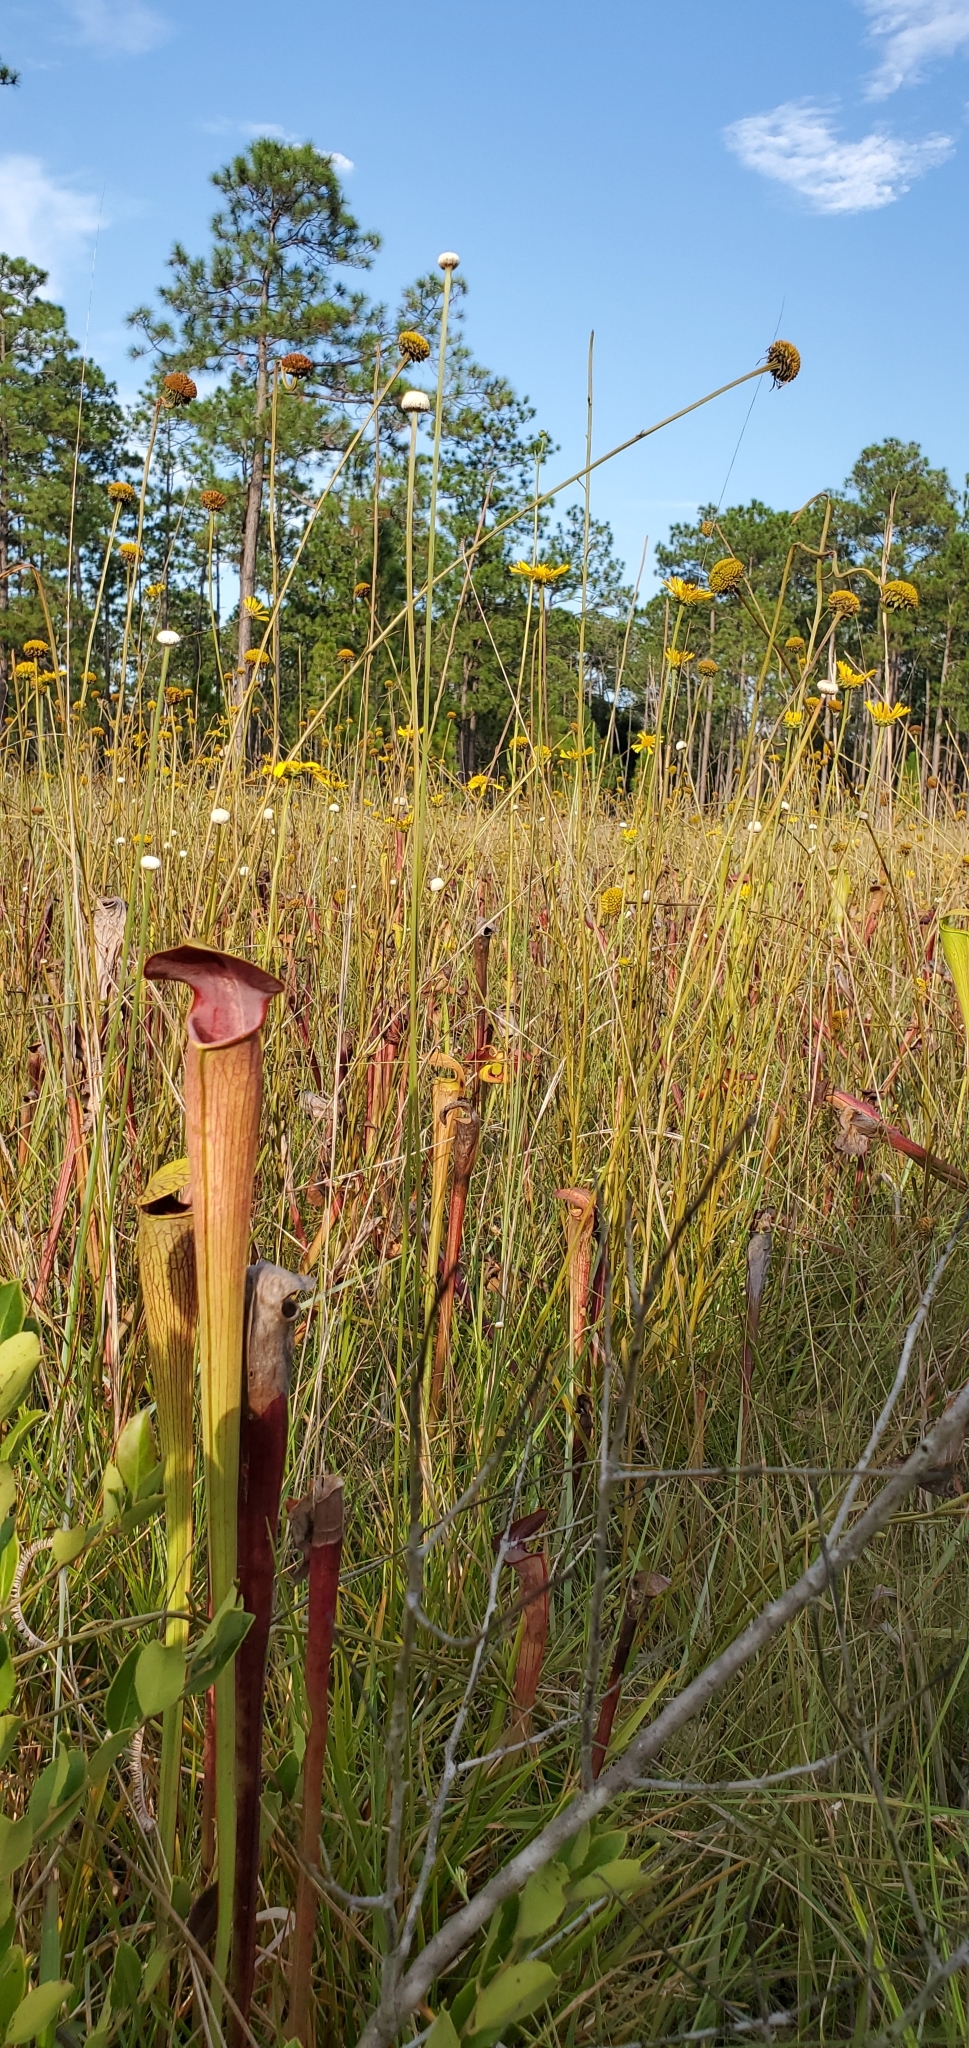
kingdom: Plantae
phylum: Tracheophyta
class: Magnoliopsida
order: Ericales
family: Sarraceniaceae
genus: Sarracenia
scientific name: Sarracenia alata
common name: Yellow trumpets
